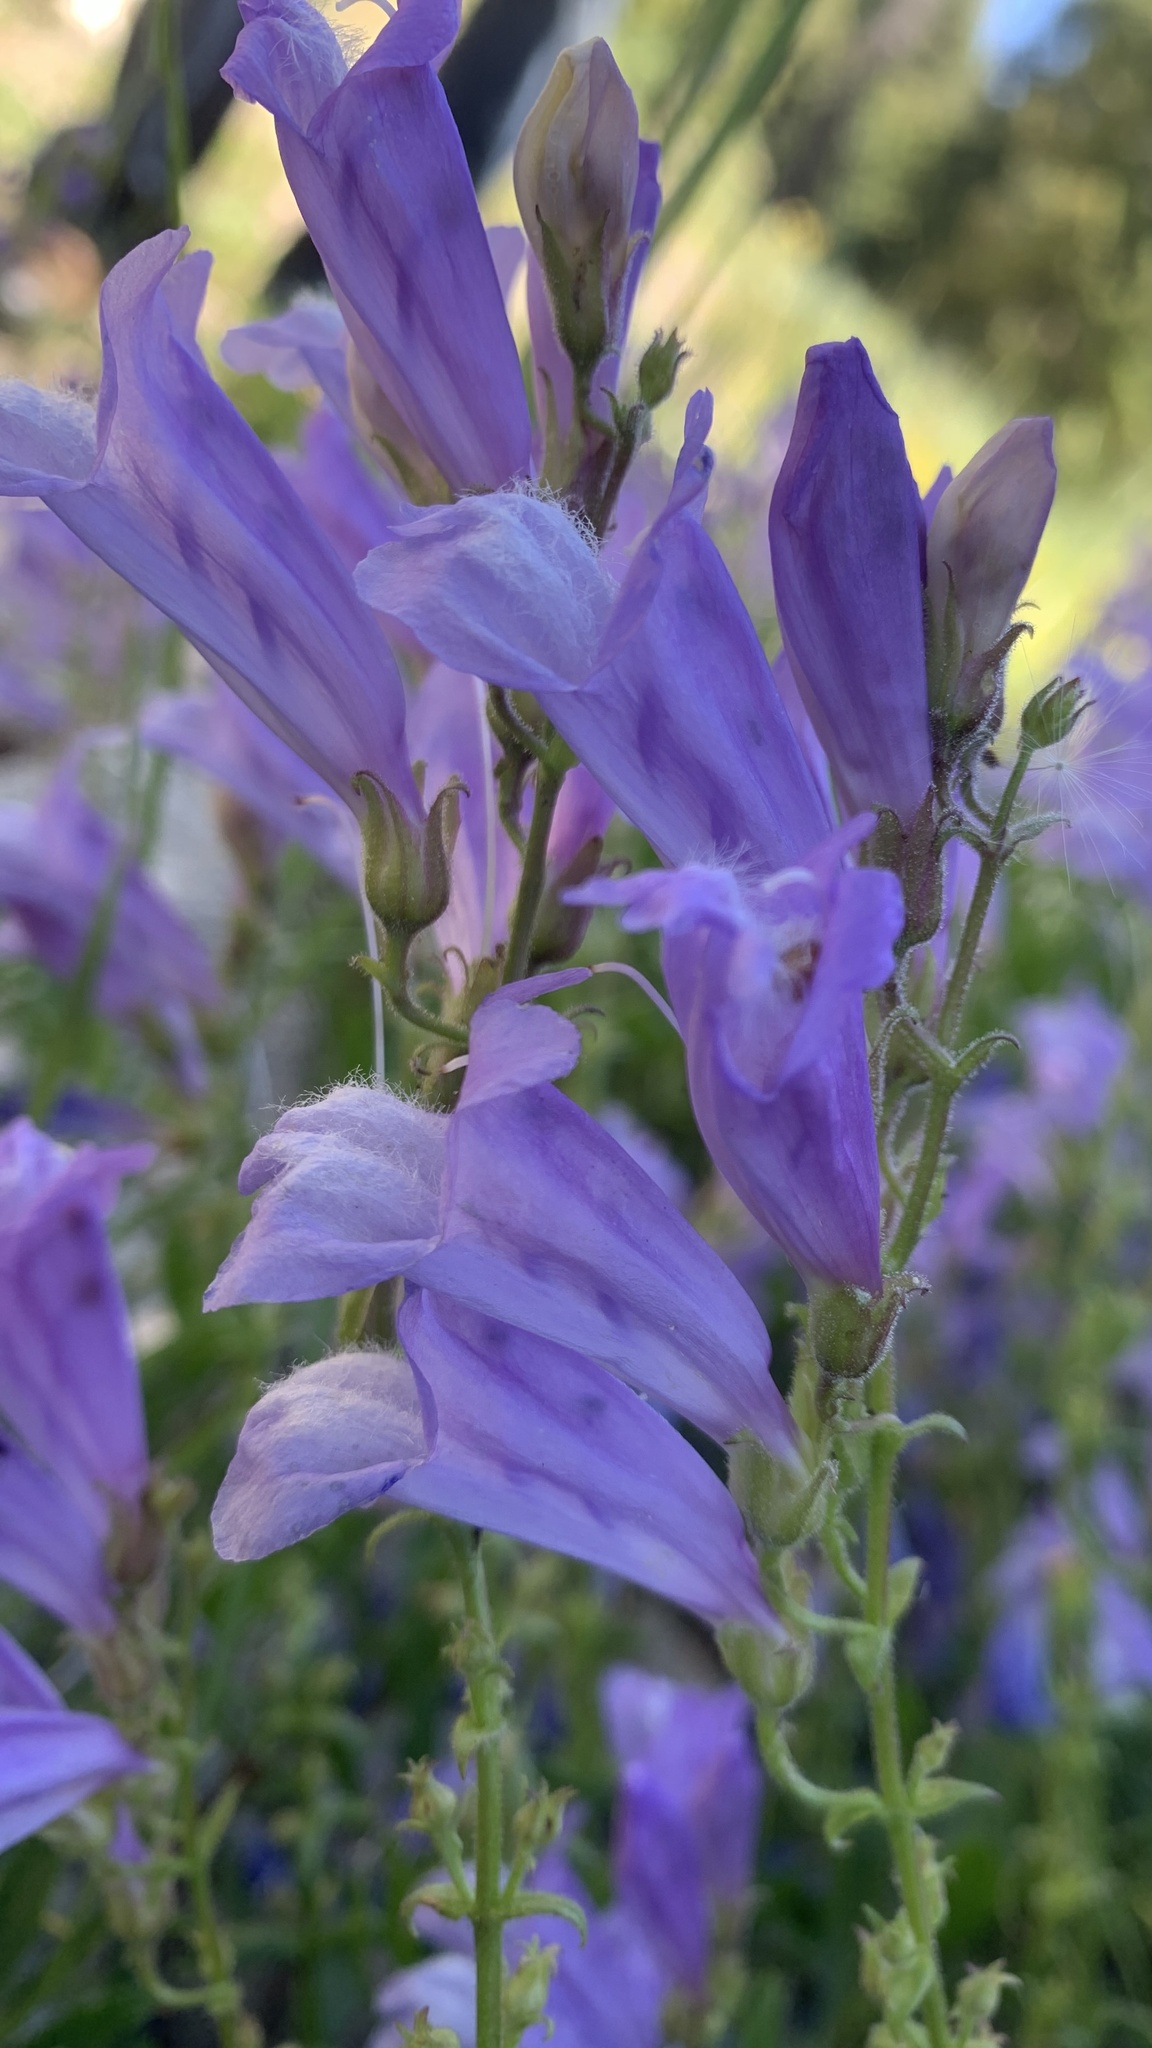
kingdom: Plantae
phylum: Tracheophyta
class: Magnoliopsida
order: Lamiales
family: Plantaginaceae
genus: Penstemon
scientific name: Penstemon fruticosus
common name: Bush penstemon
